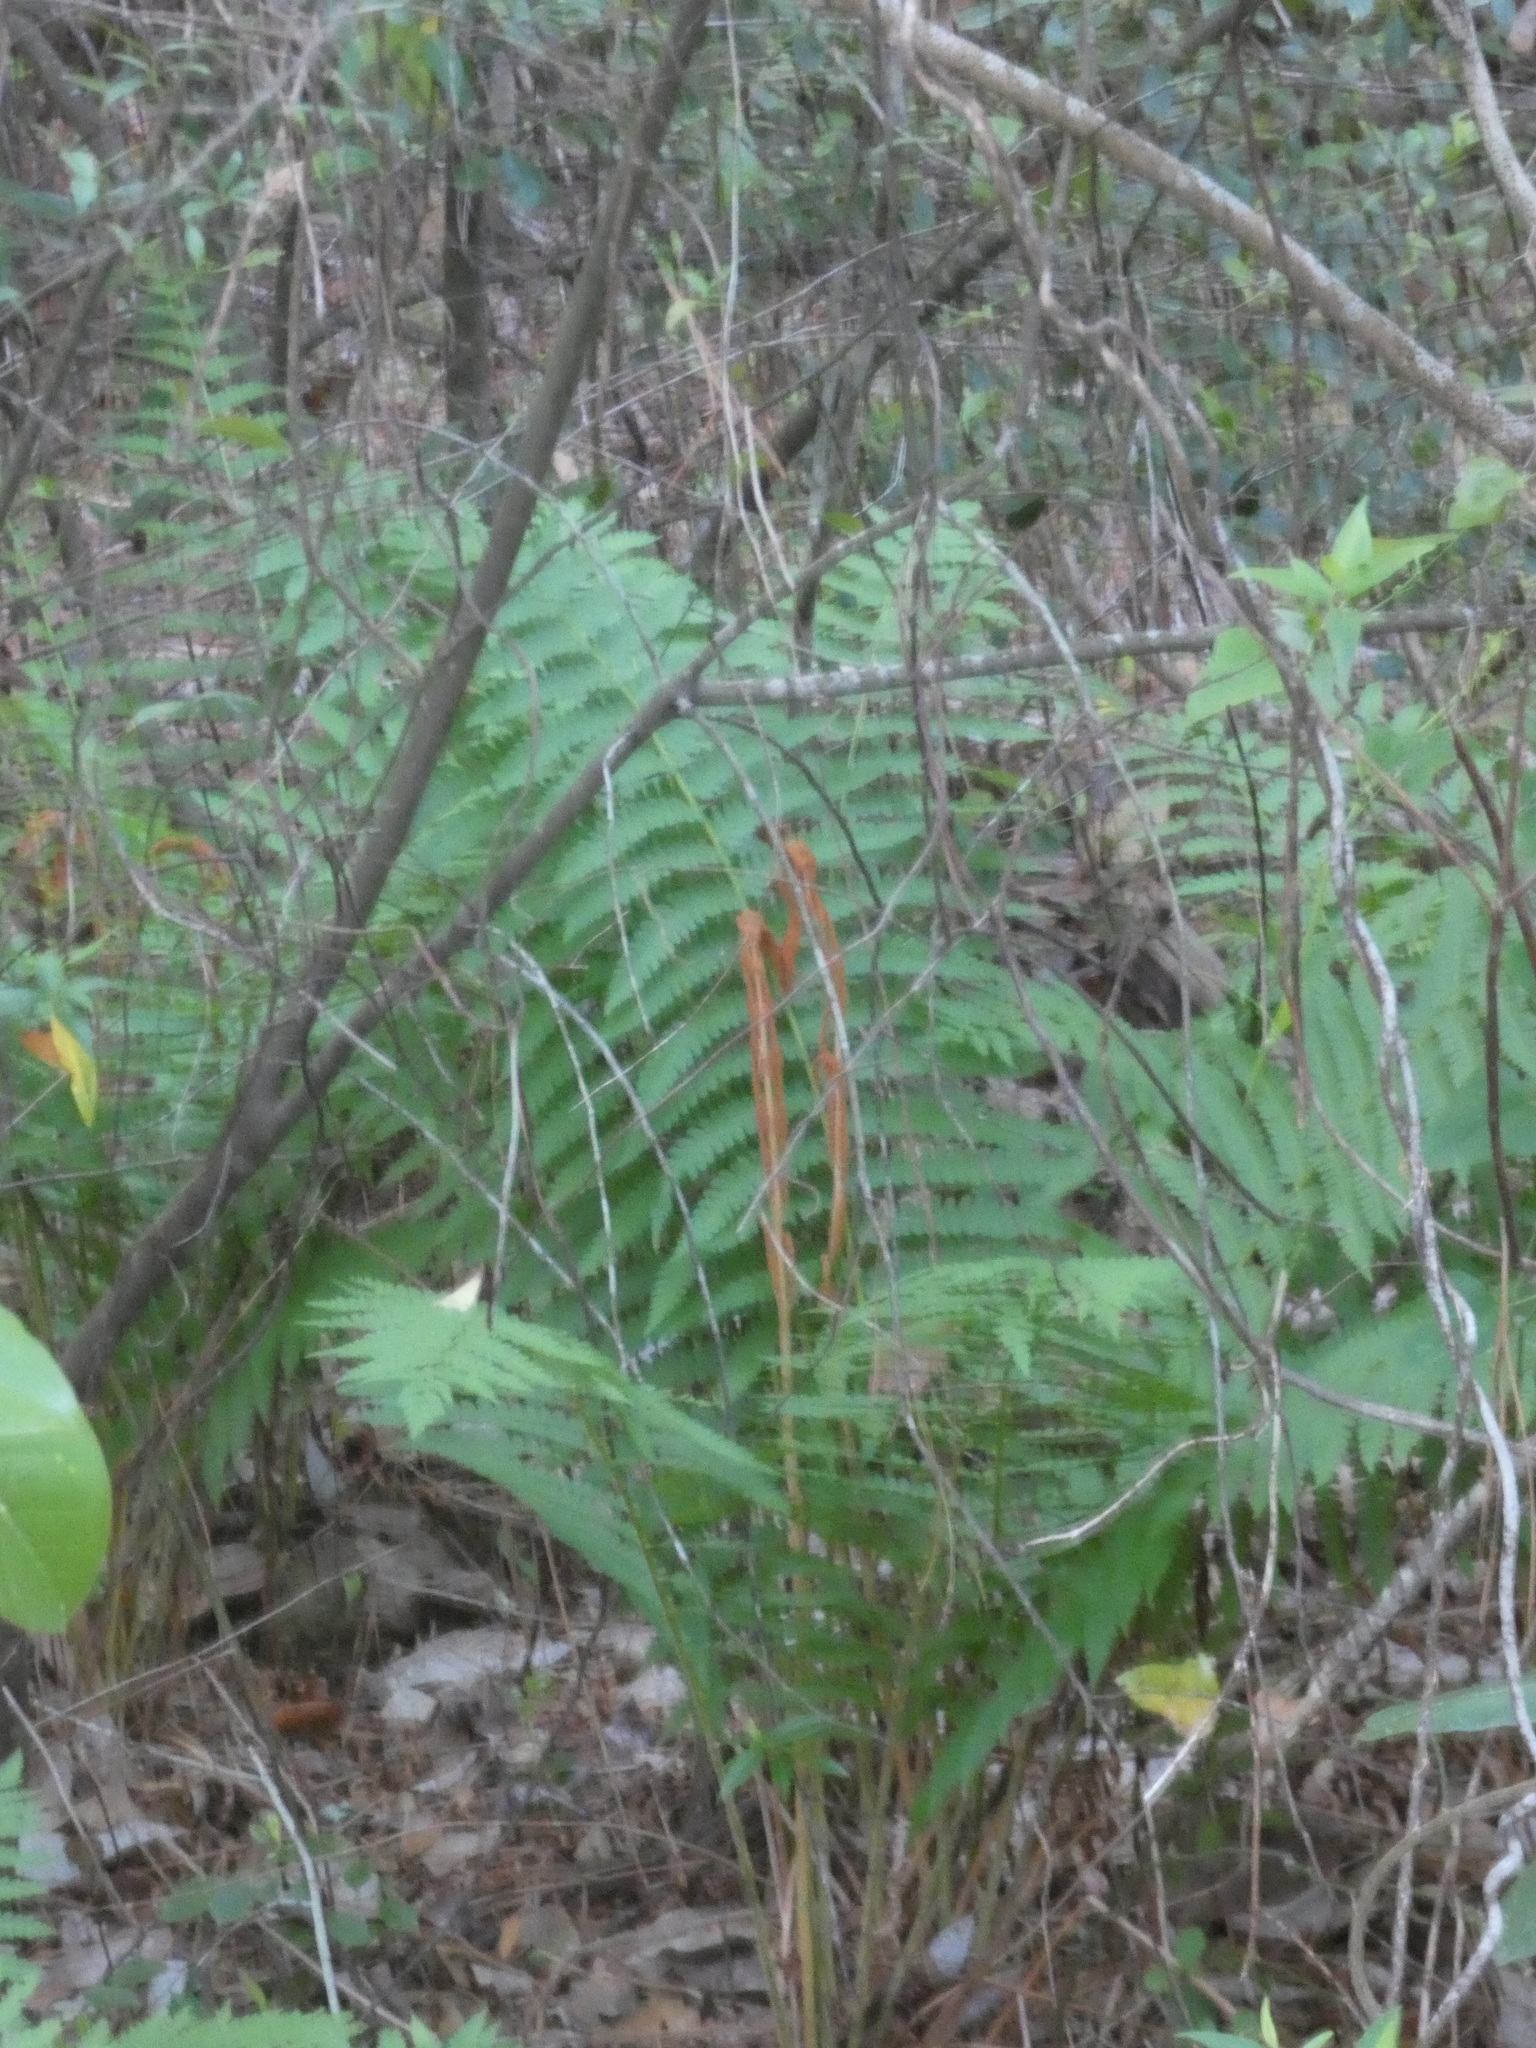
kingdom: Plantae
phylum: Tracheophyta
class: Polypodiopsida
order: Osmundales
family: Osmundaceae
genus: Osmundastrum
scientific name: Osmundastrum cinnamomeum
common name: Cinnamon fern
